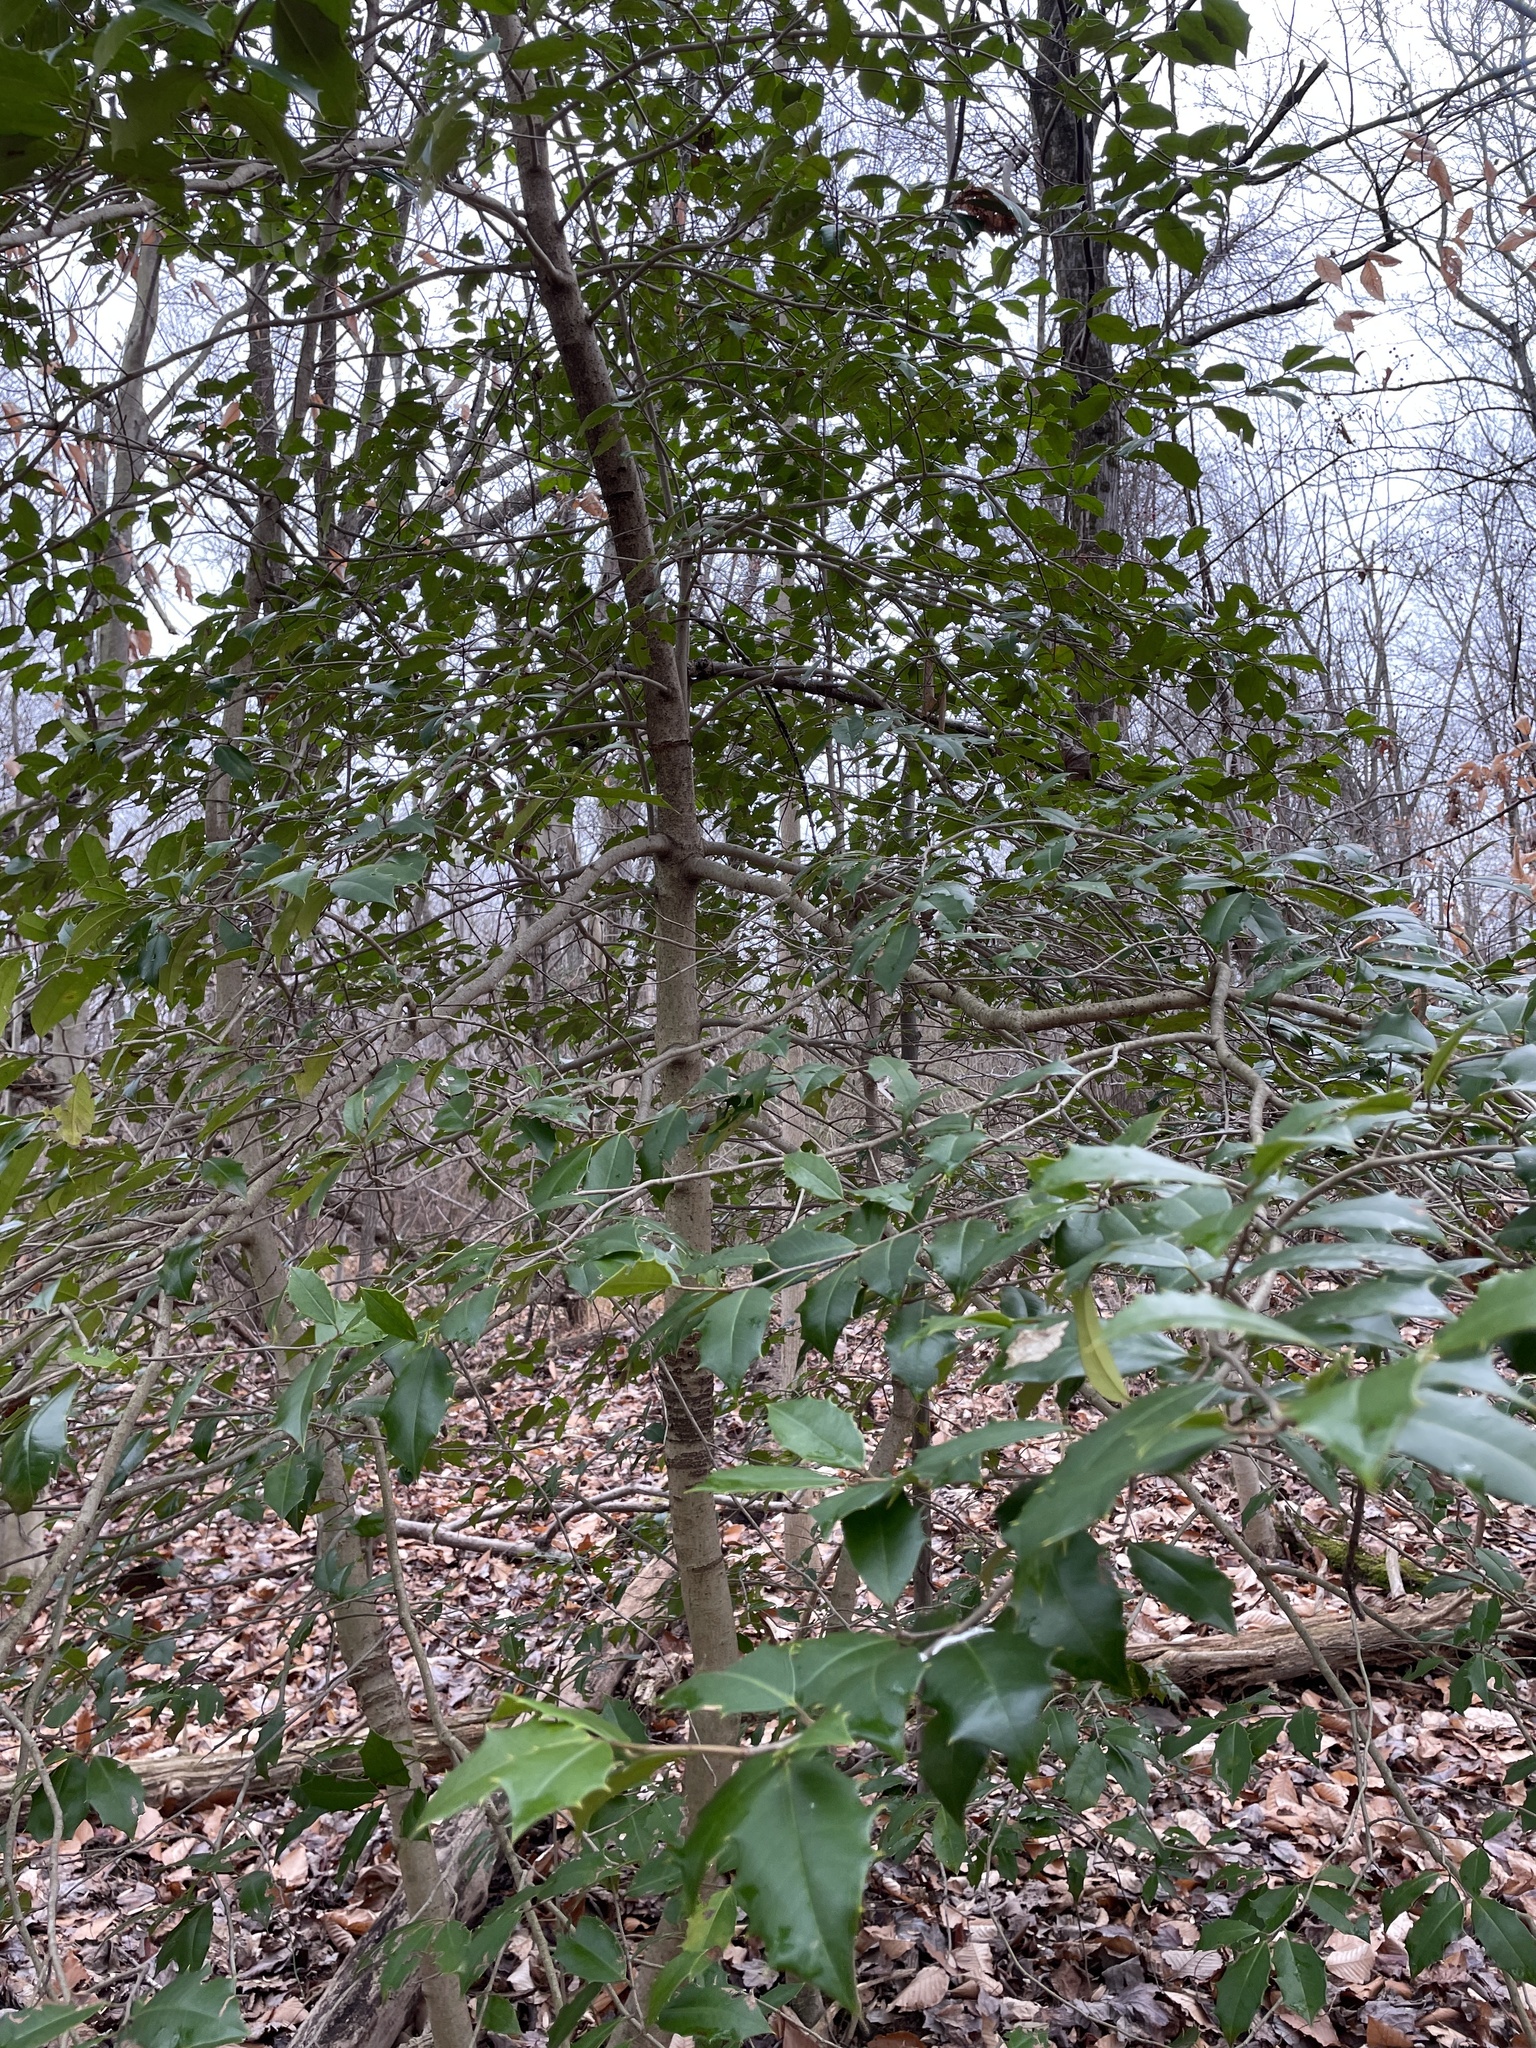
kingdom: Plantae
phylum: Tracheophyta
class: Magnoliopsida
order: Aquifoliales
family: Aquifoliaceae
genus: Ilex
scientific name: Ilex opaca
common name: American holly
